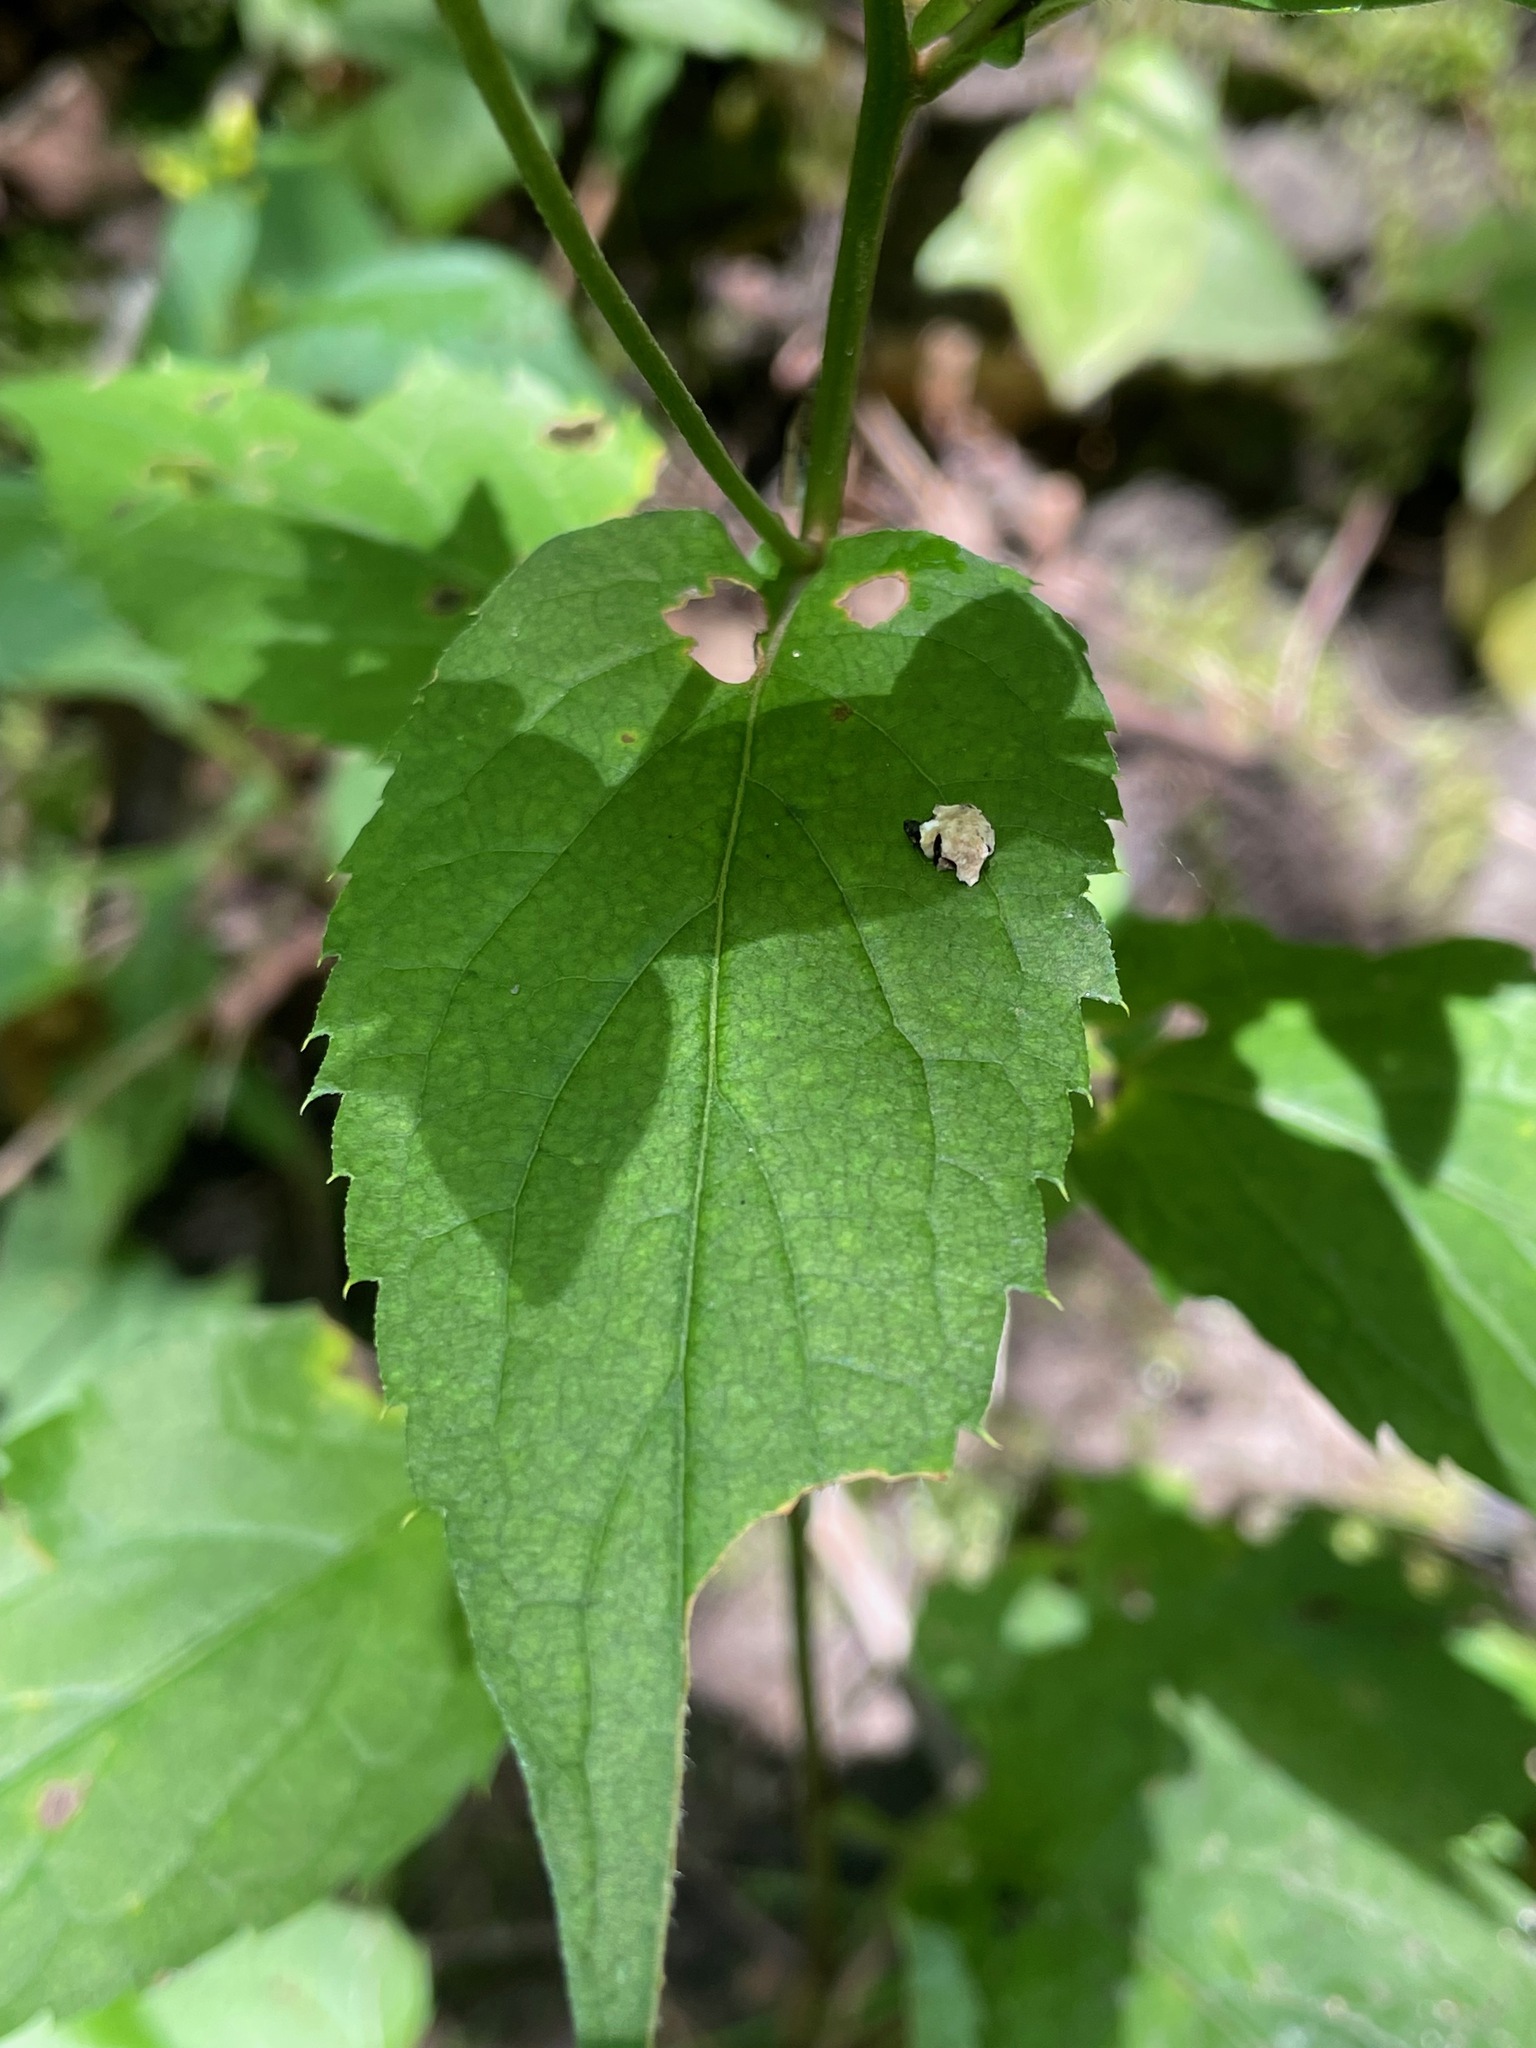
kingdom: Plantae
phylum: Tracheophyta
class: Magnoliopsida
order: Asterales
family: Asteraceae
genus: Eurybia
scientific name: Eurybia divaricata
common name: White wood aster
